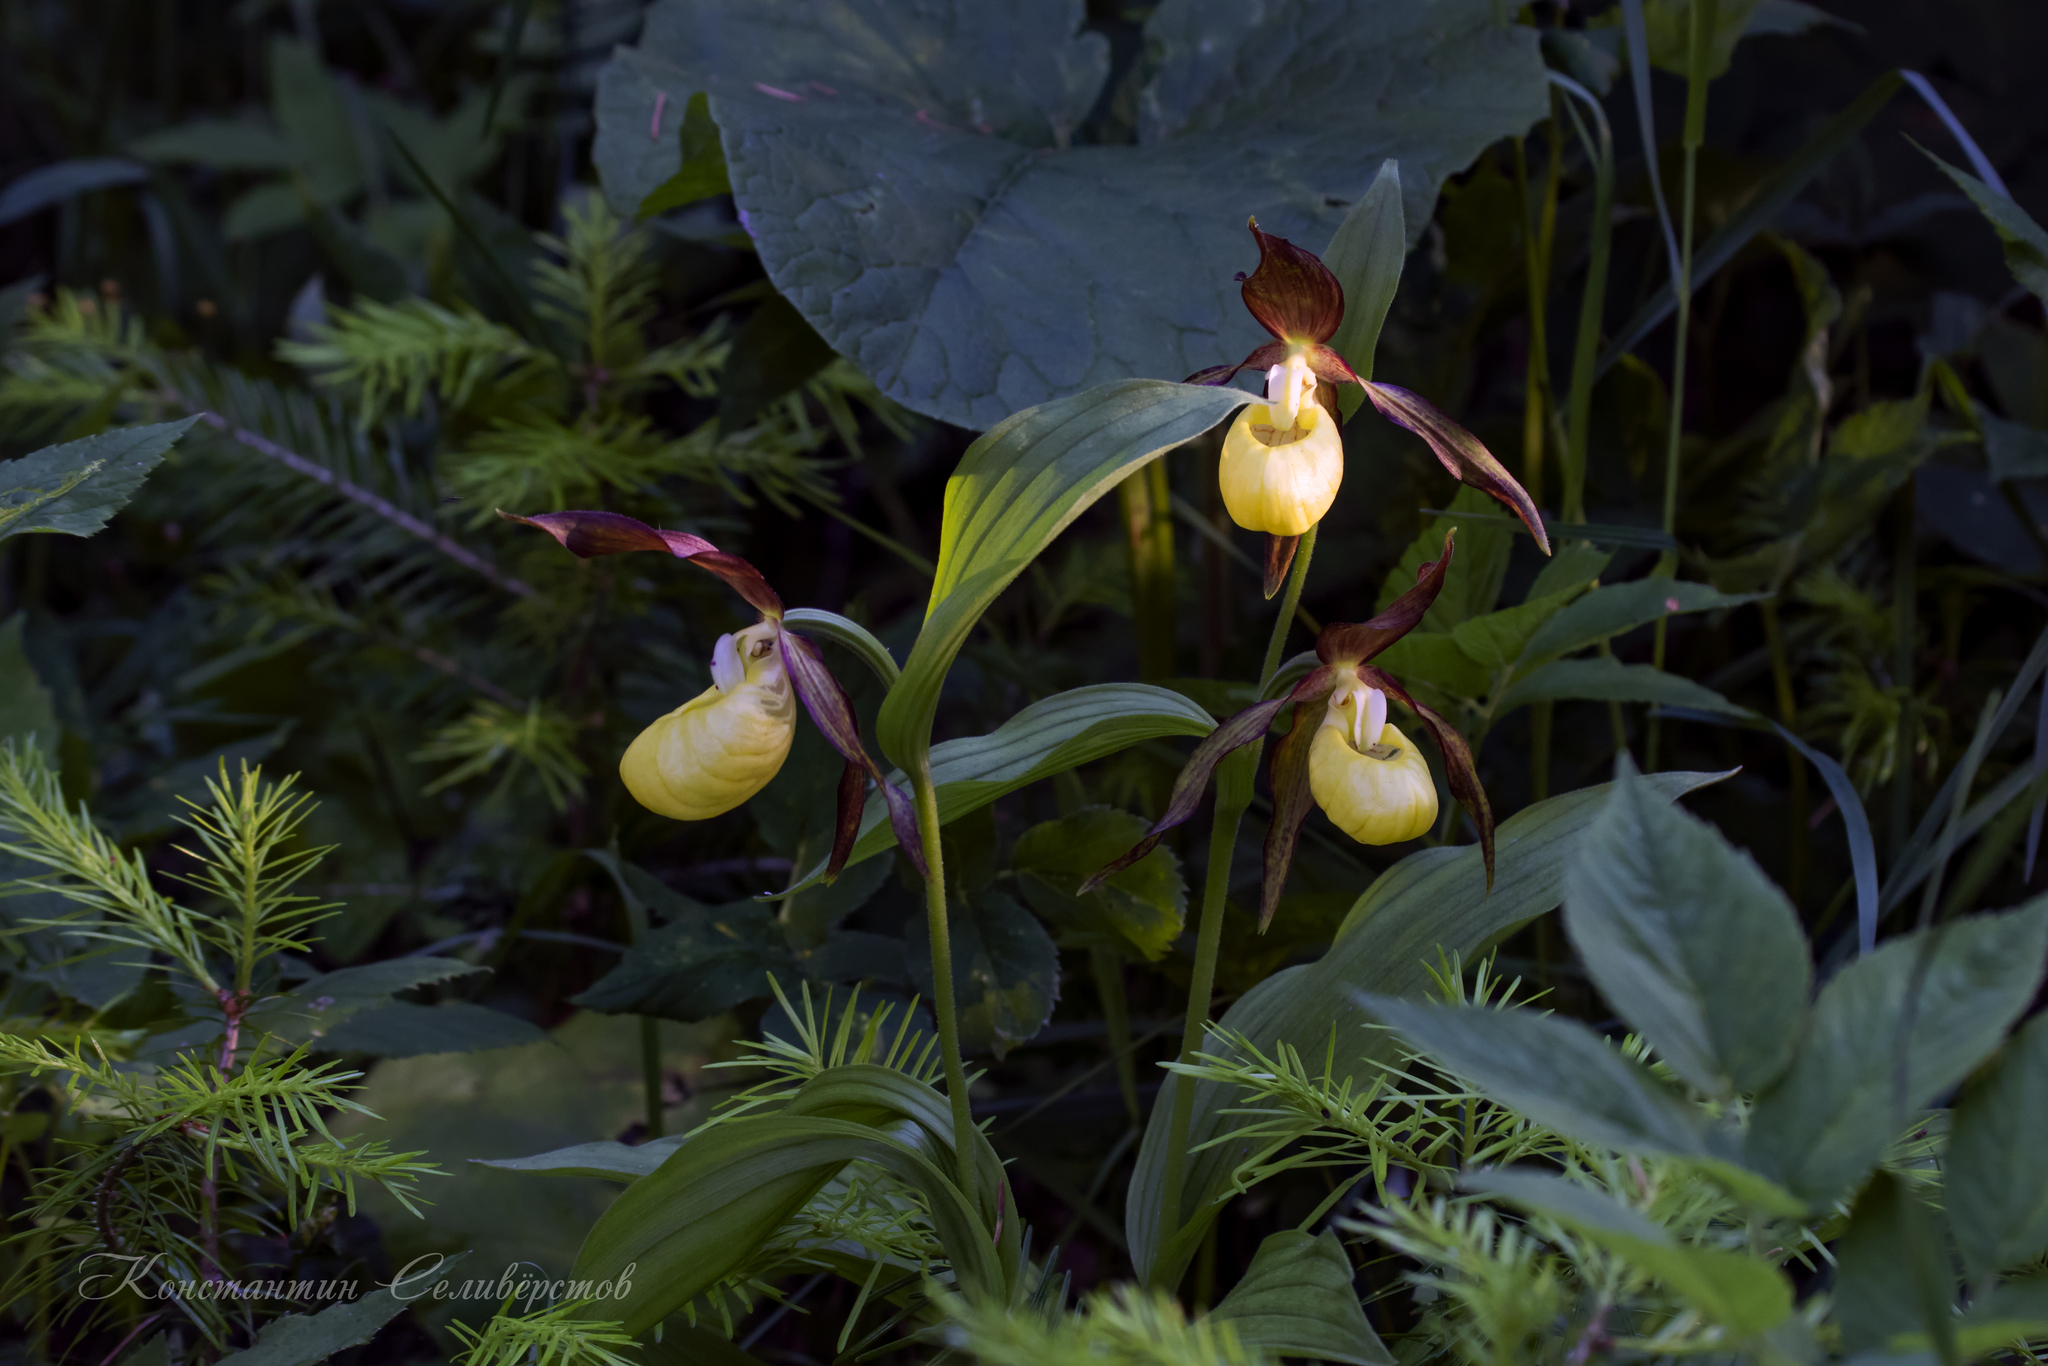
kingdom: Plantae
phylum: Tracheophyta
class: Liliopsida
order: Asparagales
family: Orchidaceae
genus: Cypripedium
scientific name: Cypripedium calceolus
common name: Lady's-slipper
